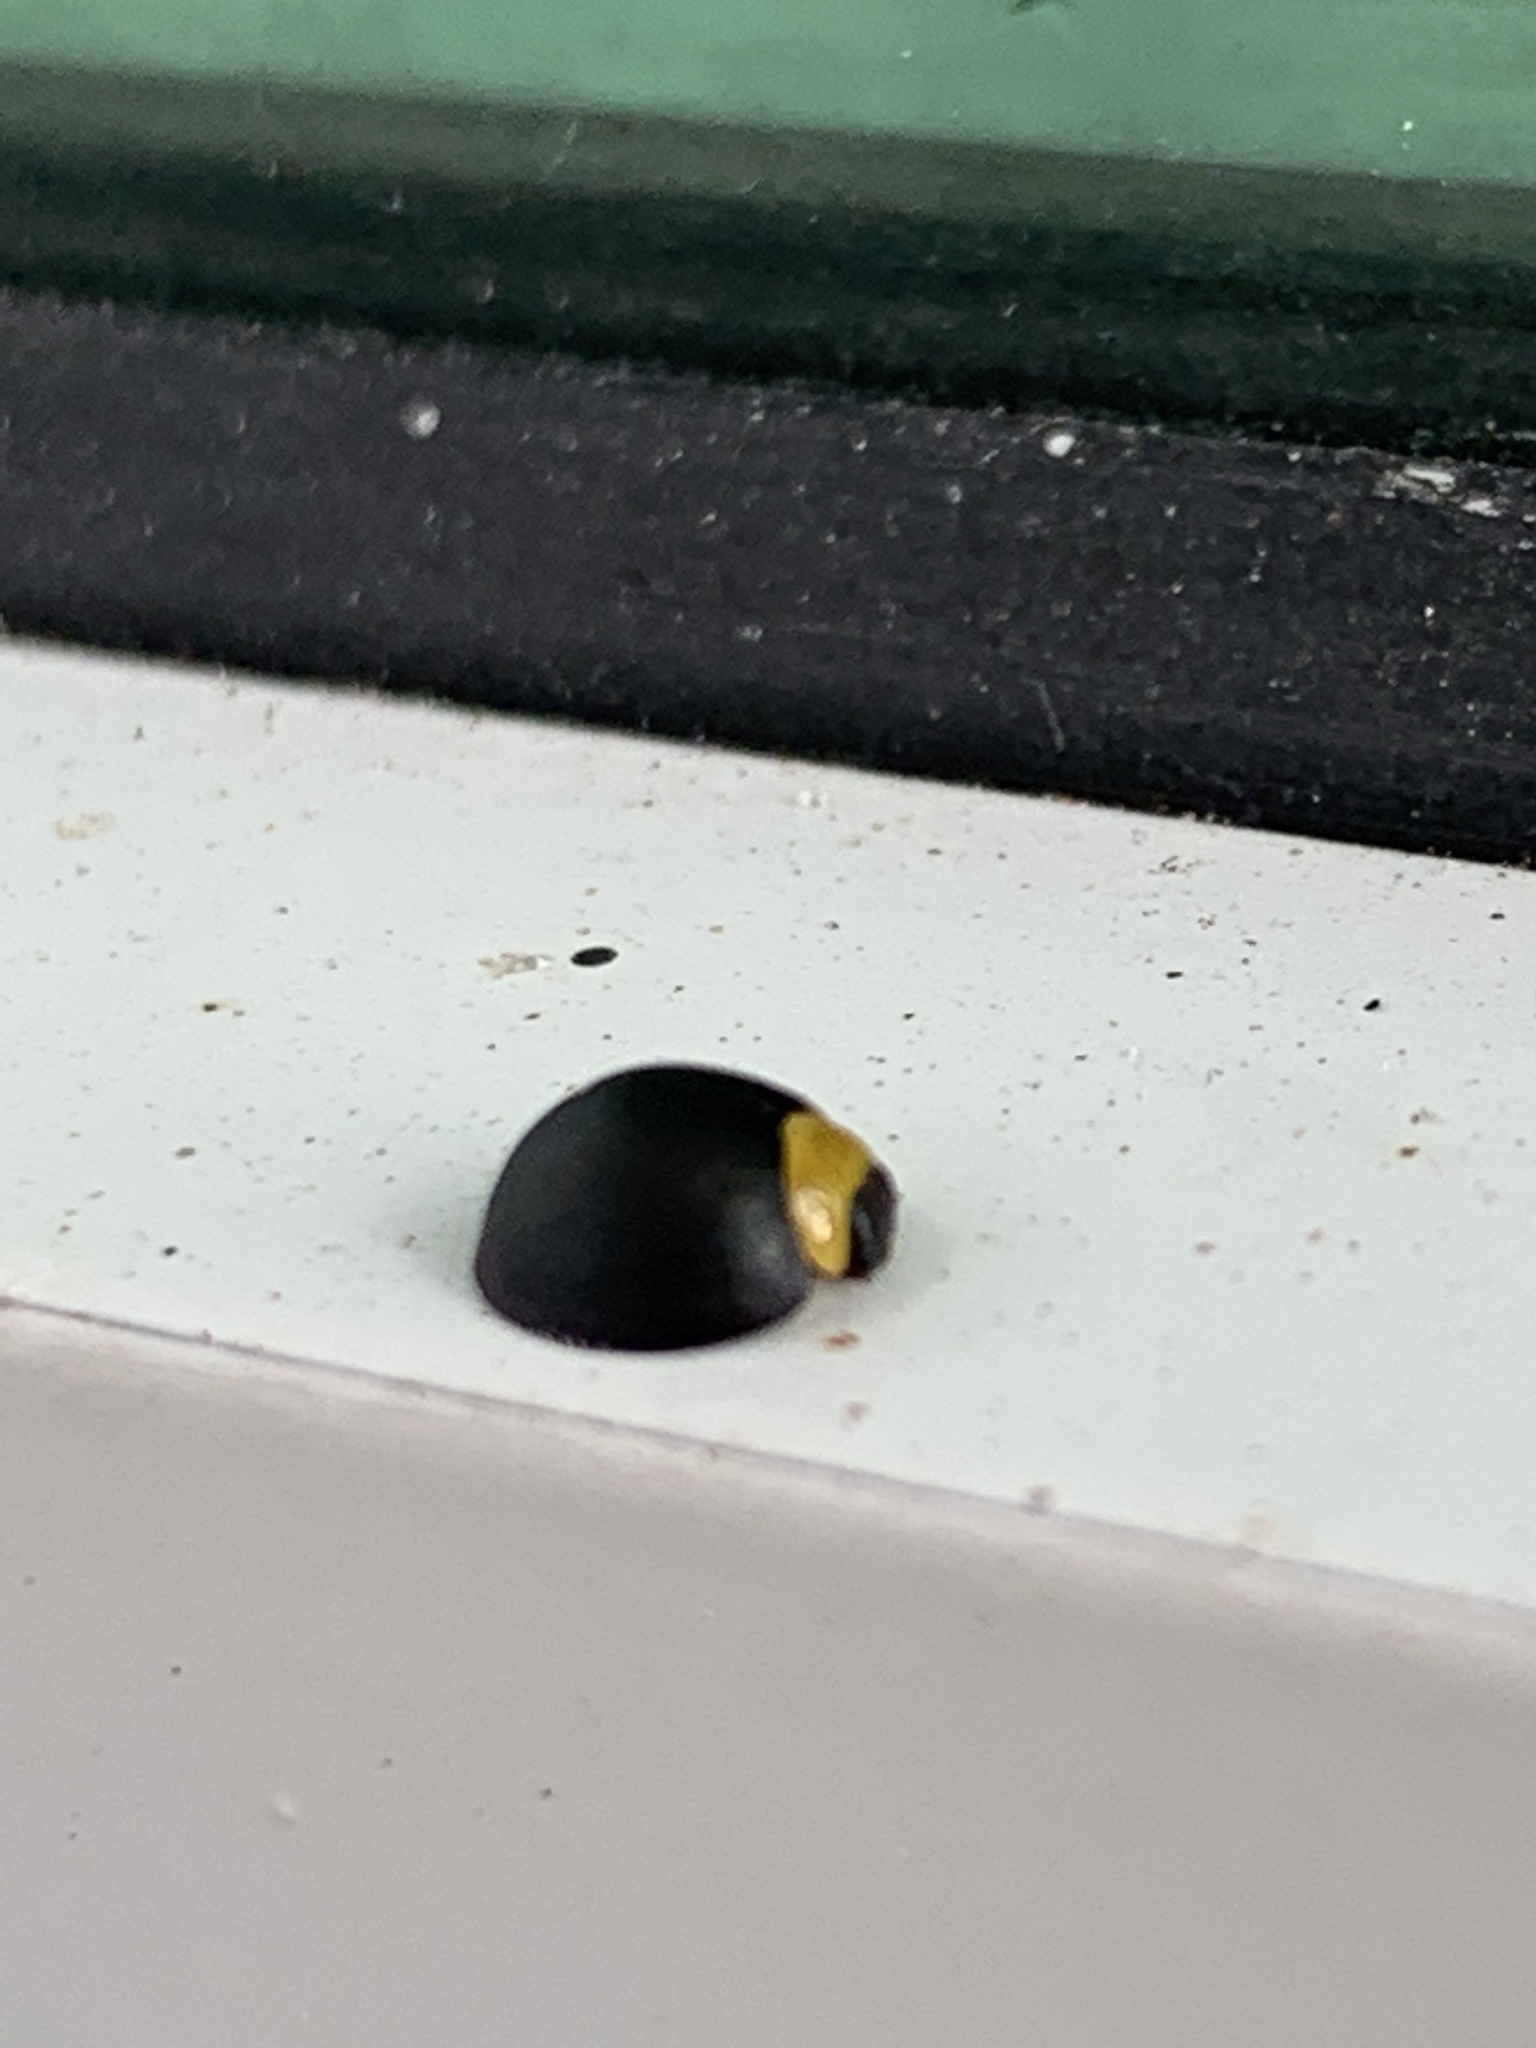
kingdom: Animalia
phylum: Arthropoda
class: Insecta
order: Coleoptera
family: Coccinellidae
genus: Egius
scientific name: Egius platycephalus
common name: Ladybird beetle
